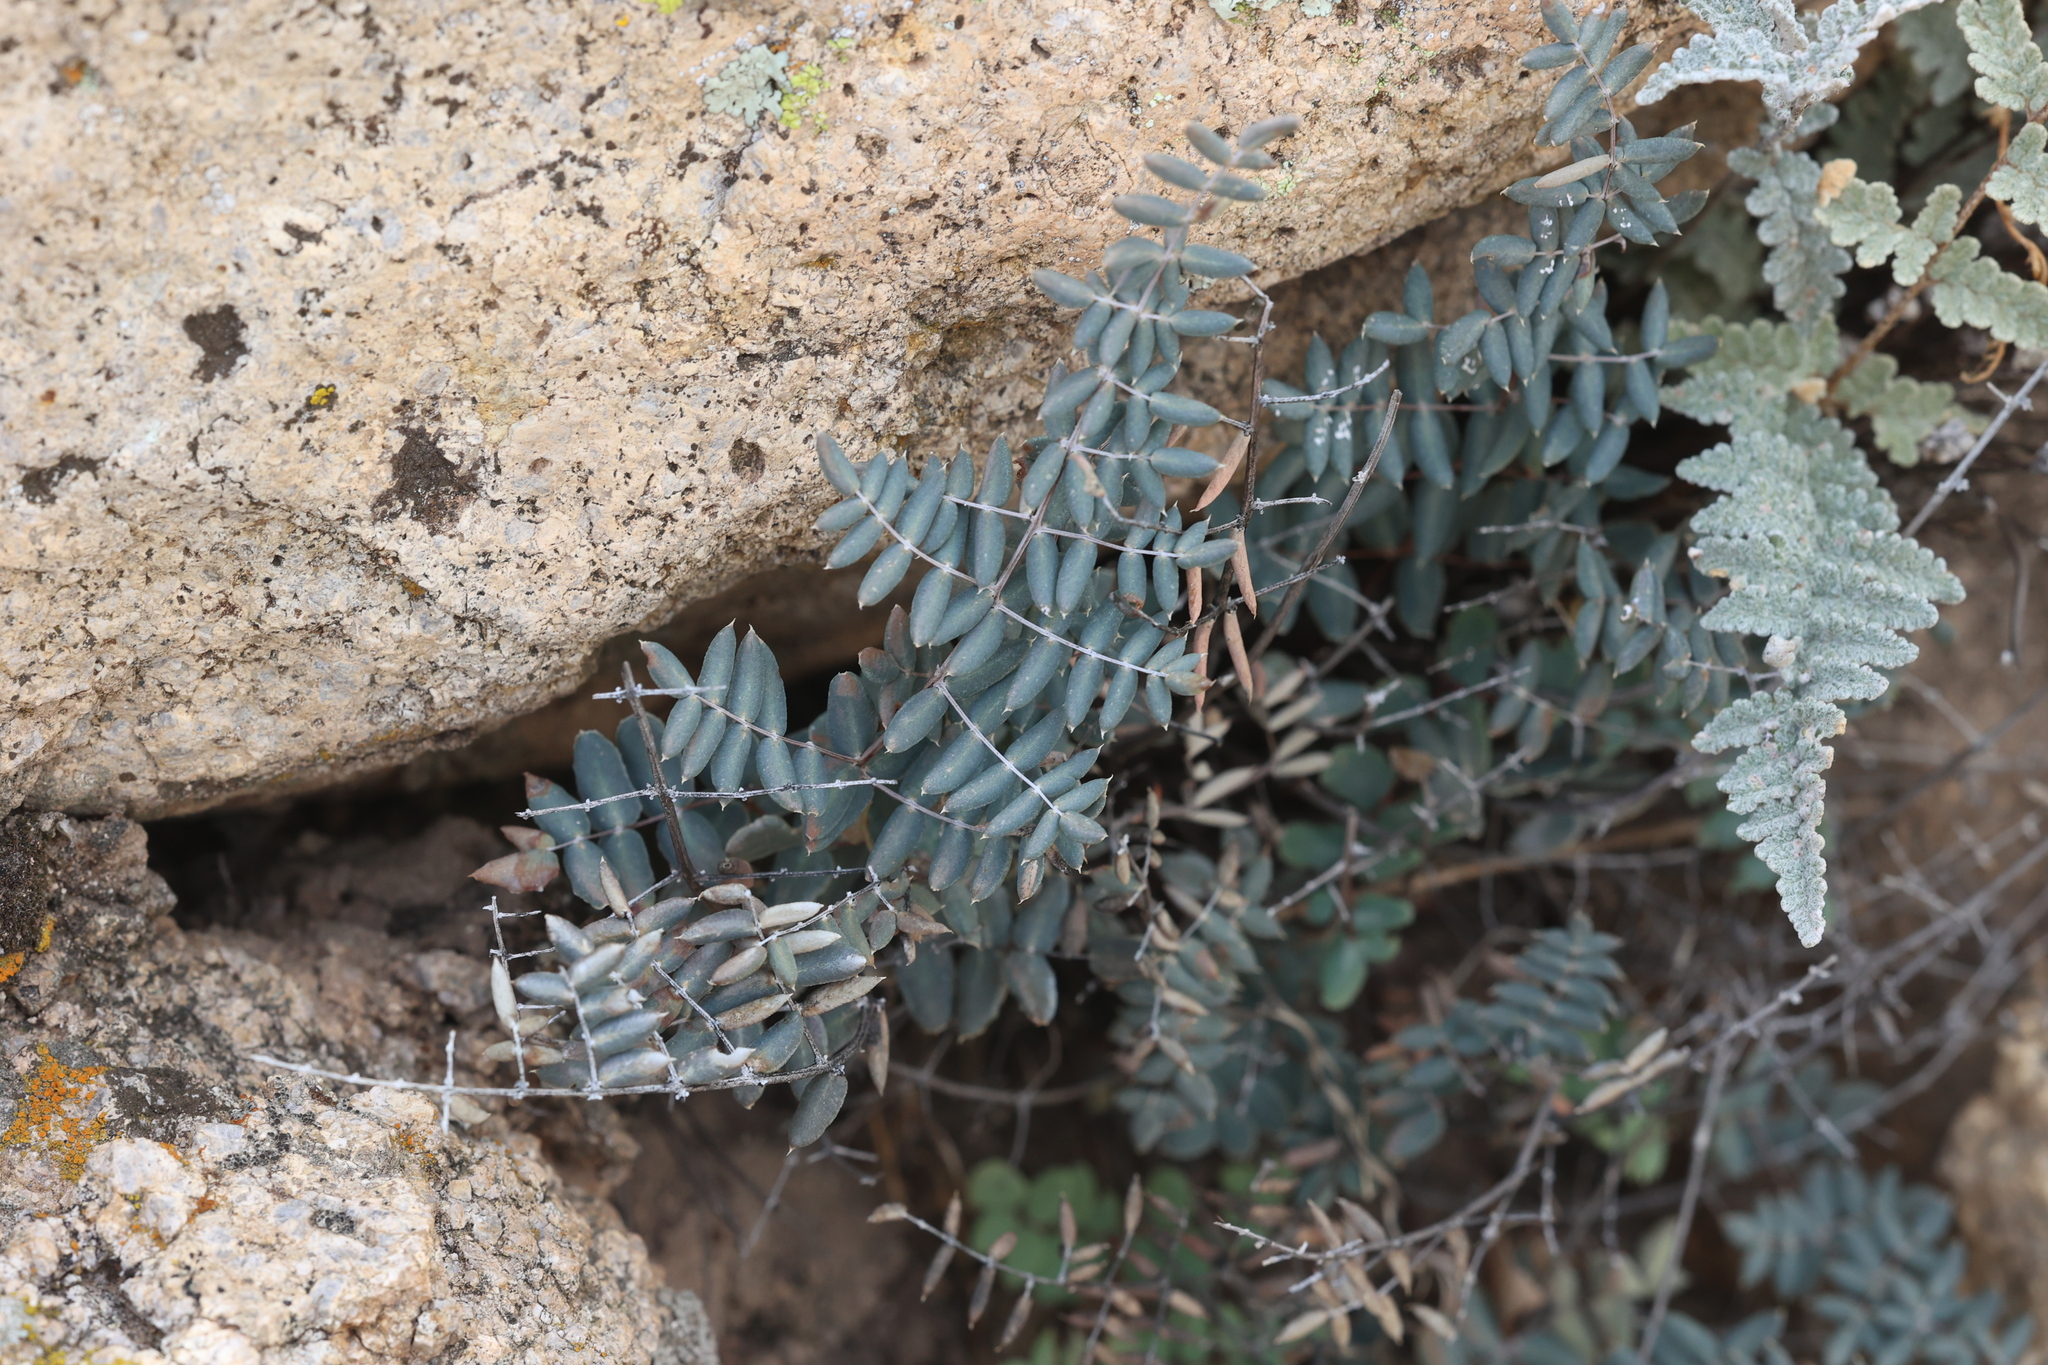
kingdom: Plantae
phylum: Tracheophyta
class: Polypodiopsida
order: Polypodiales
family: Pteridaceae
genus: Pellaea
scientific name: Pellaea truncata
